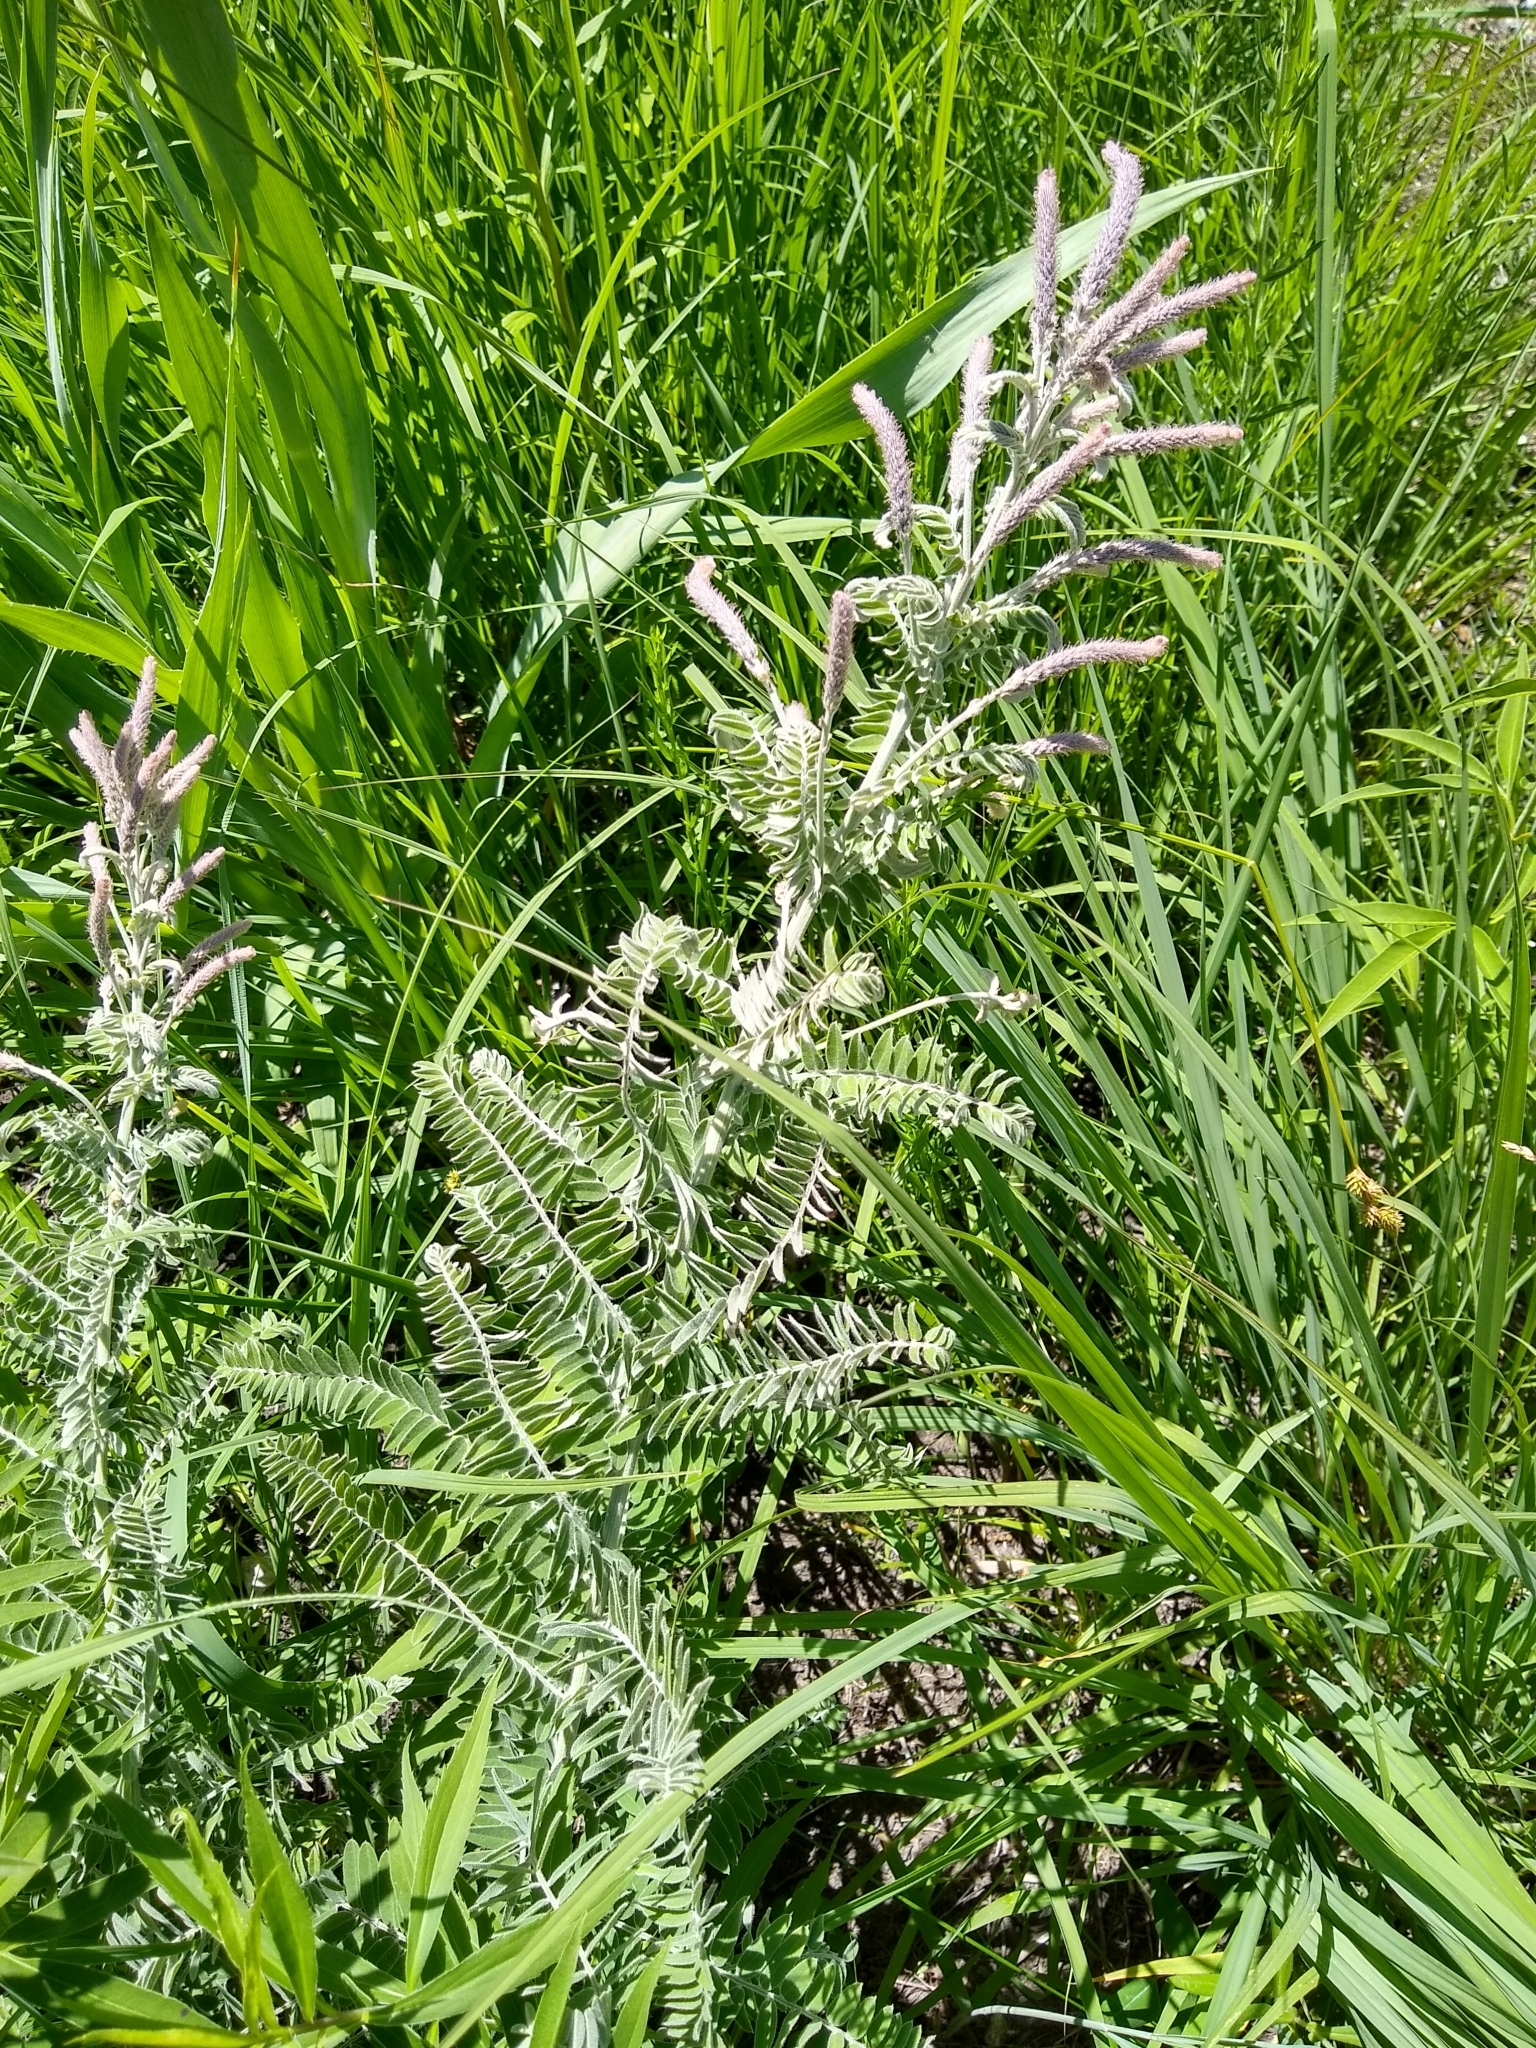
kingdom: Plantae
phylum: Tracheophyta
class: Magnoliopsida
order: Fabales
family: Fabaceae
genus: Amorpha
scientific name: Amorpha canescens
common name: Leadplant
